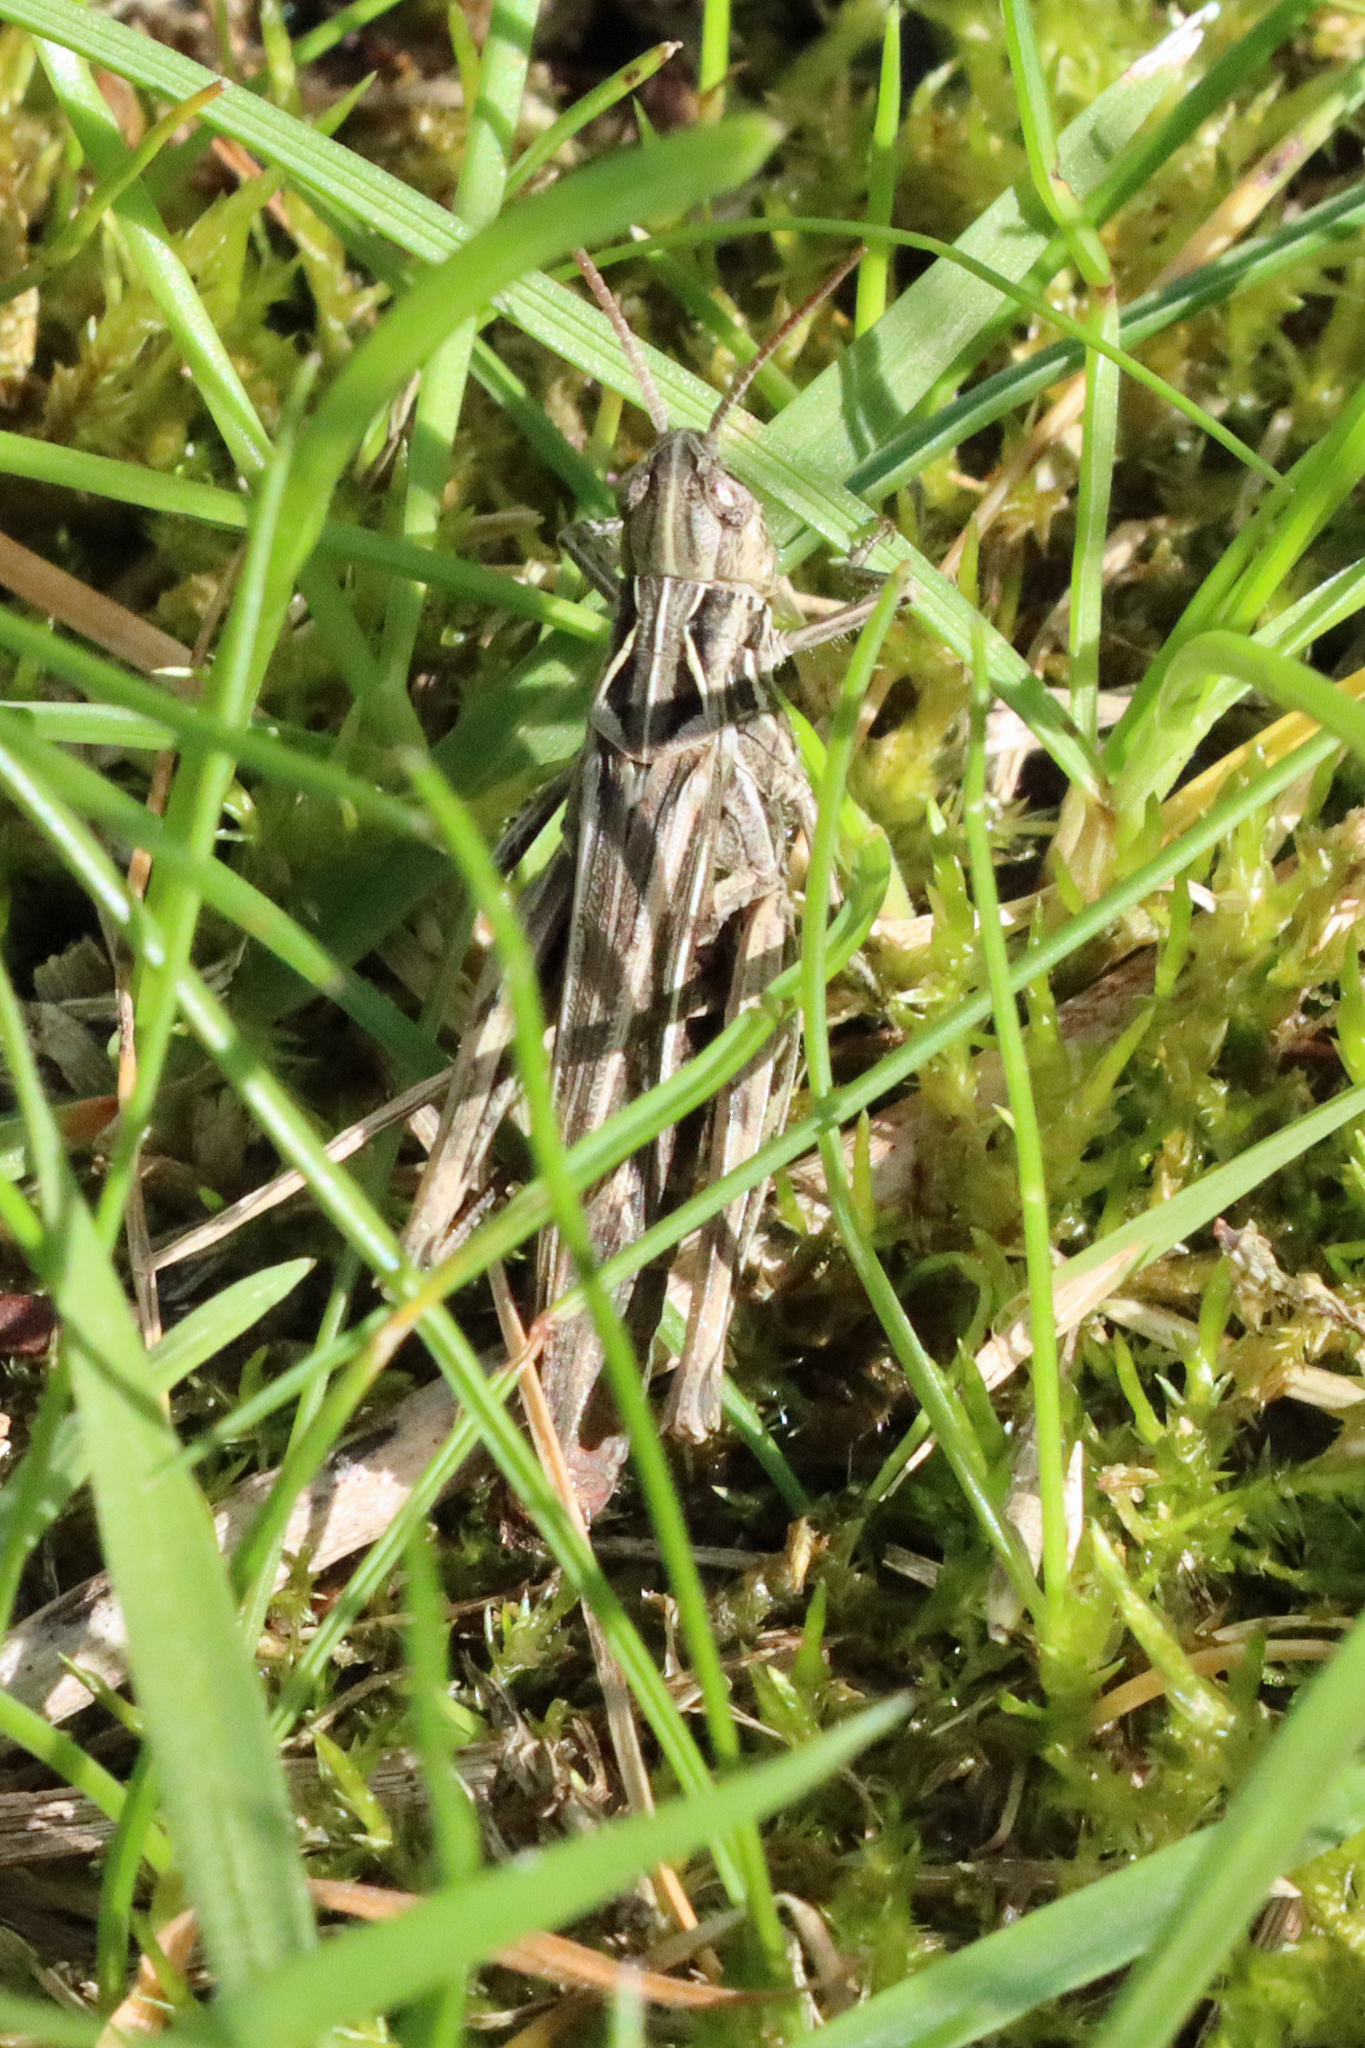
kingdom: Animalia
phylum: Arthropoda
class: Insecta
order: Orthoptera
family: Acrididae
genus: Chorthippus
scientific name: Chorthippus brunneus
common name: Field grasshopper
